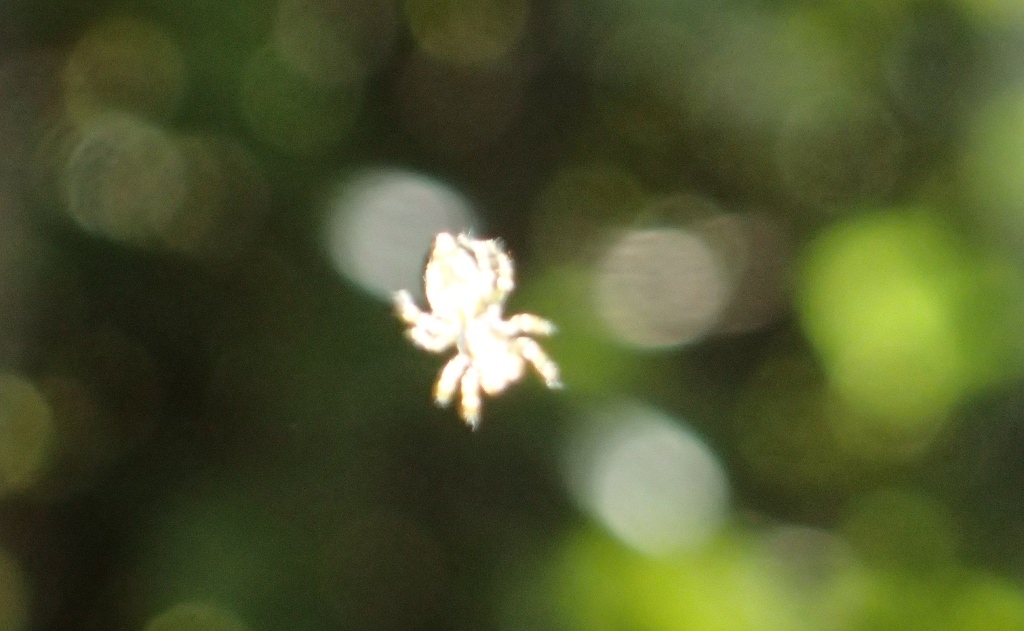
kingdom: Animalia
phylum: Arthropoda
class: Arachnida
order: Araneae
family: Salticidae
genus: Hinewaia
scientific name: Hinewaia embolica
